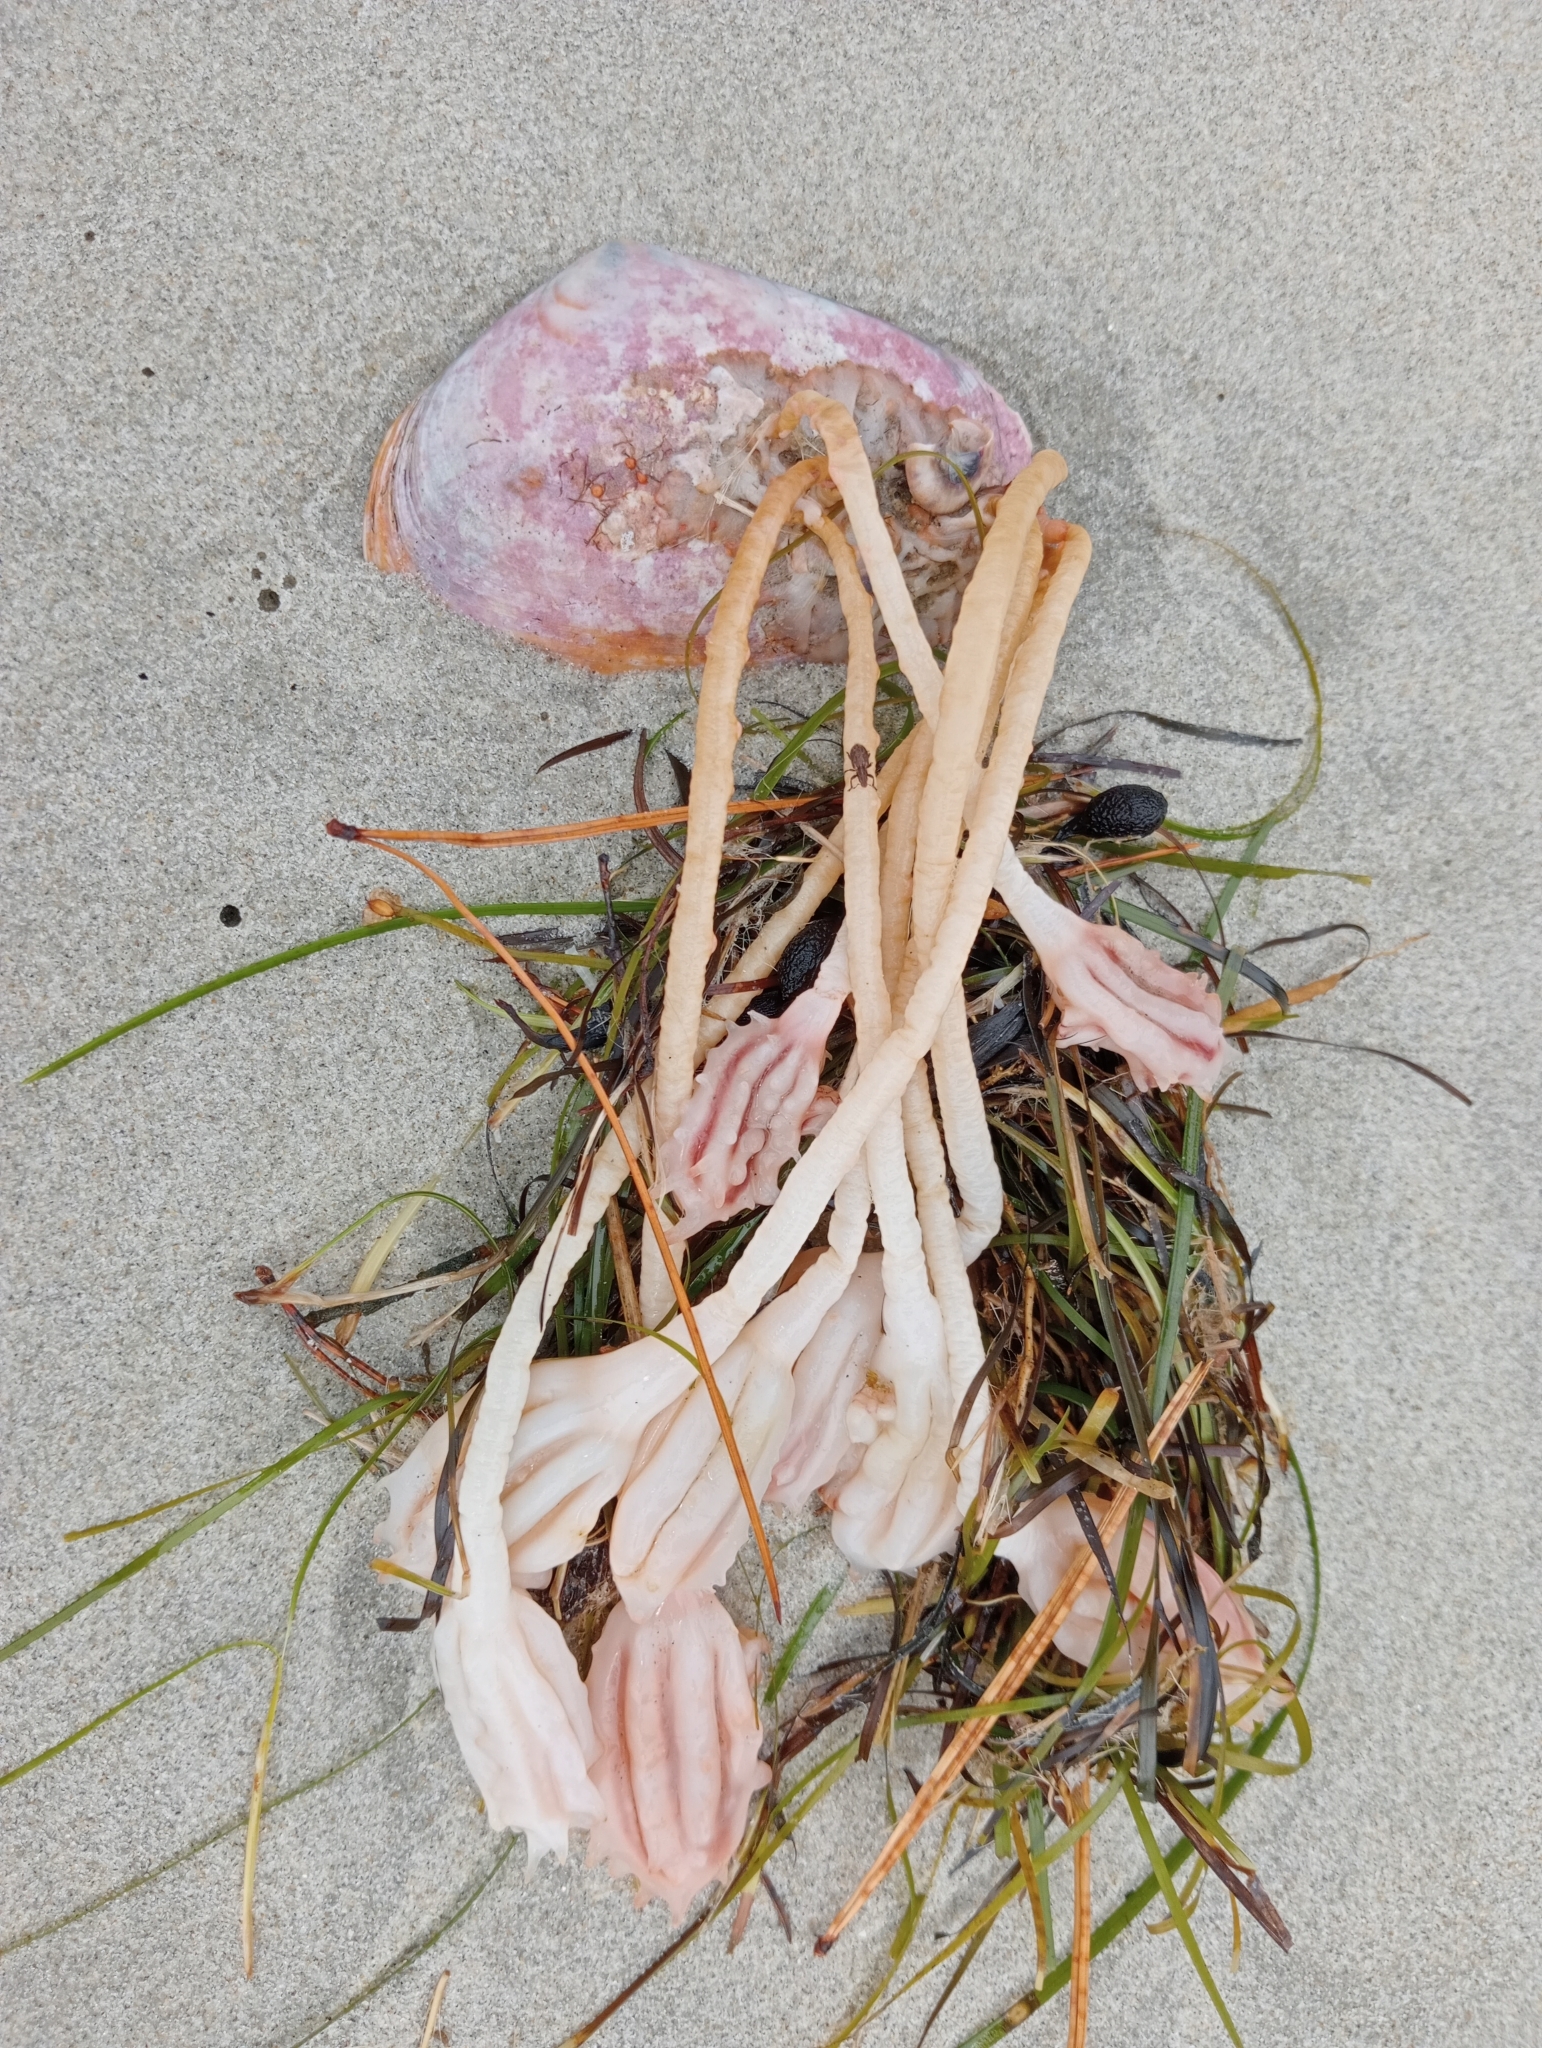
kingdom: Animalia
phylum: Chordata
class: Ascidiacea
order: Stolidobranchia
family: Pyuridae
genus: Pyura
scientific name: Pyura pachydermatina
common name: Sea tulip
